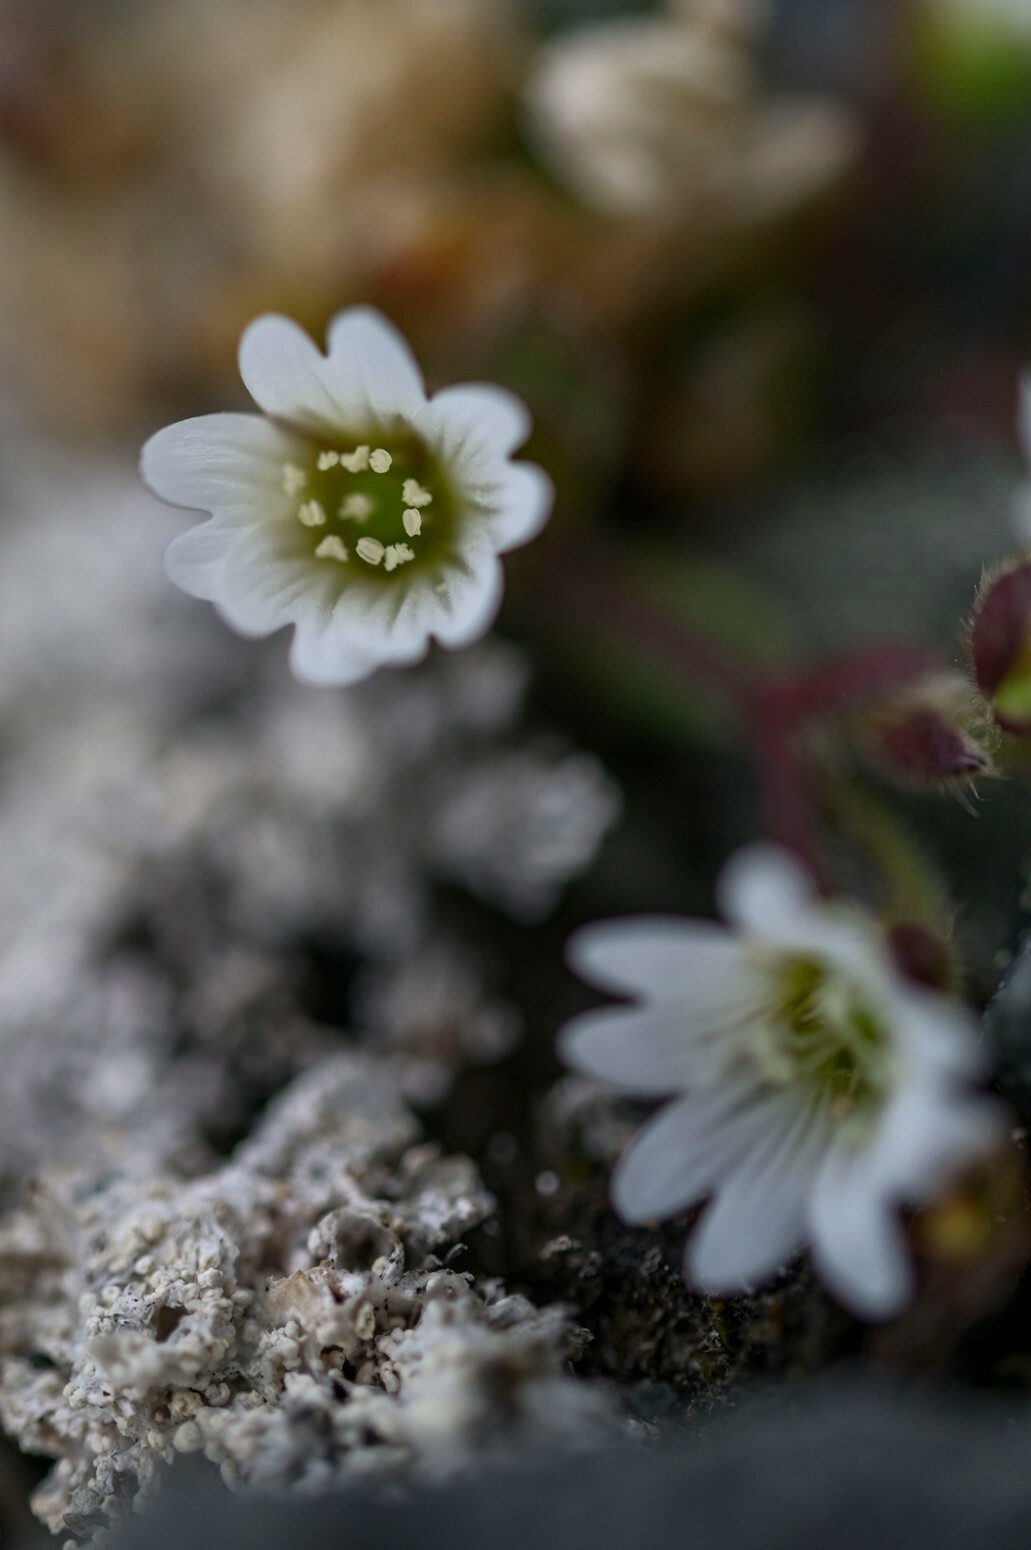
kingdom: Plantae
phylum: Tracheophyta
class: Magnoliopsida
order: Caryophyllales
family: Caryophyllaceae
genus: Cerastium
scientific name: Cerastium beeringianum
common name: Bering mouse-ear chickweed
